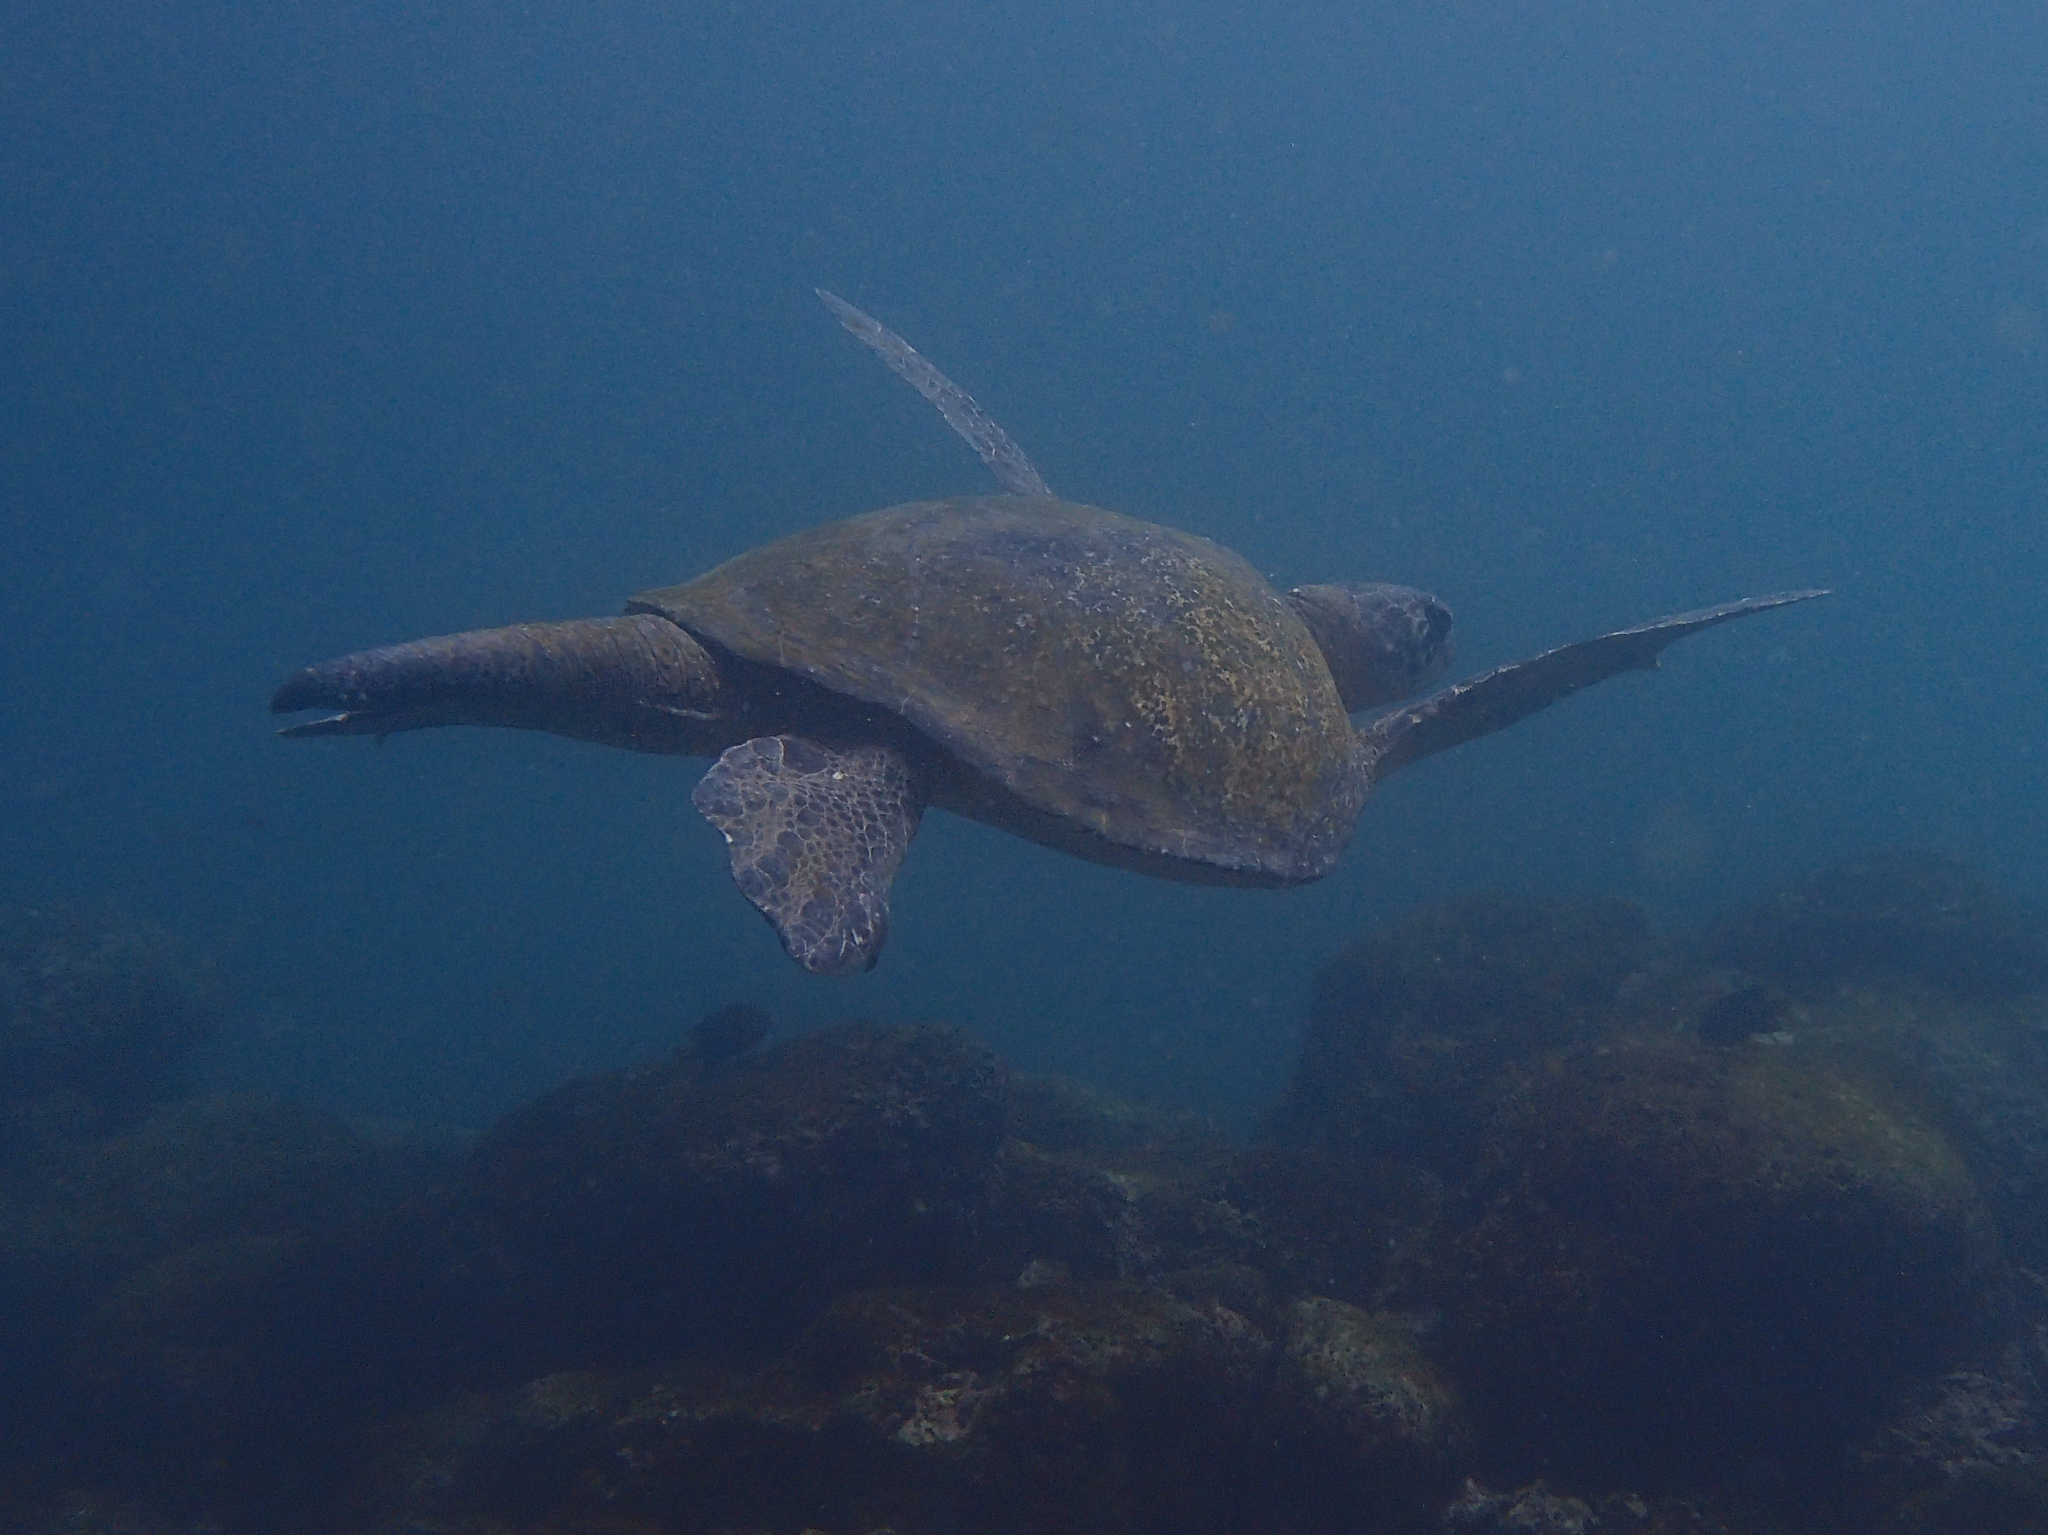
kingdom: Animalia
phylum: Chordata
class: Testudines
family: Cheloniidae
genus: Chelonia
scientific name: Chelonia mydas
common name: Green turtle
